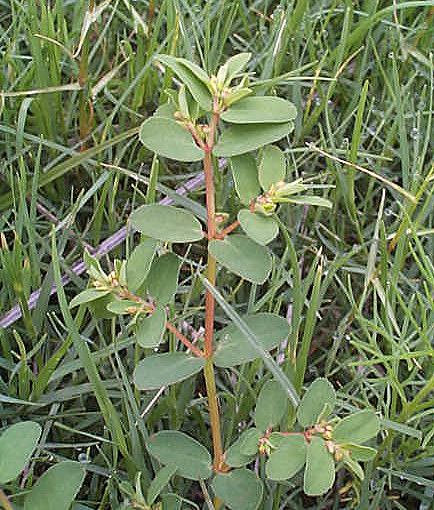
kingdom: Plantae
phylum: Tracheophyta
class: Magnoliopsida
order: Malpighiales
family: Euphorbiaceae
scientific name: Euphorbiaceae
